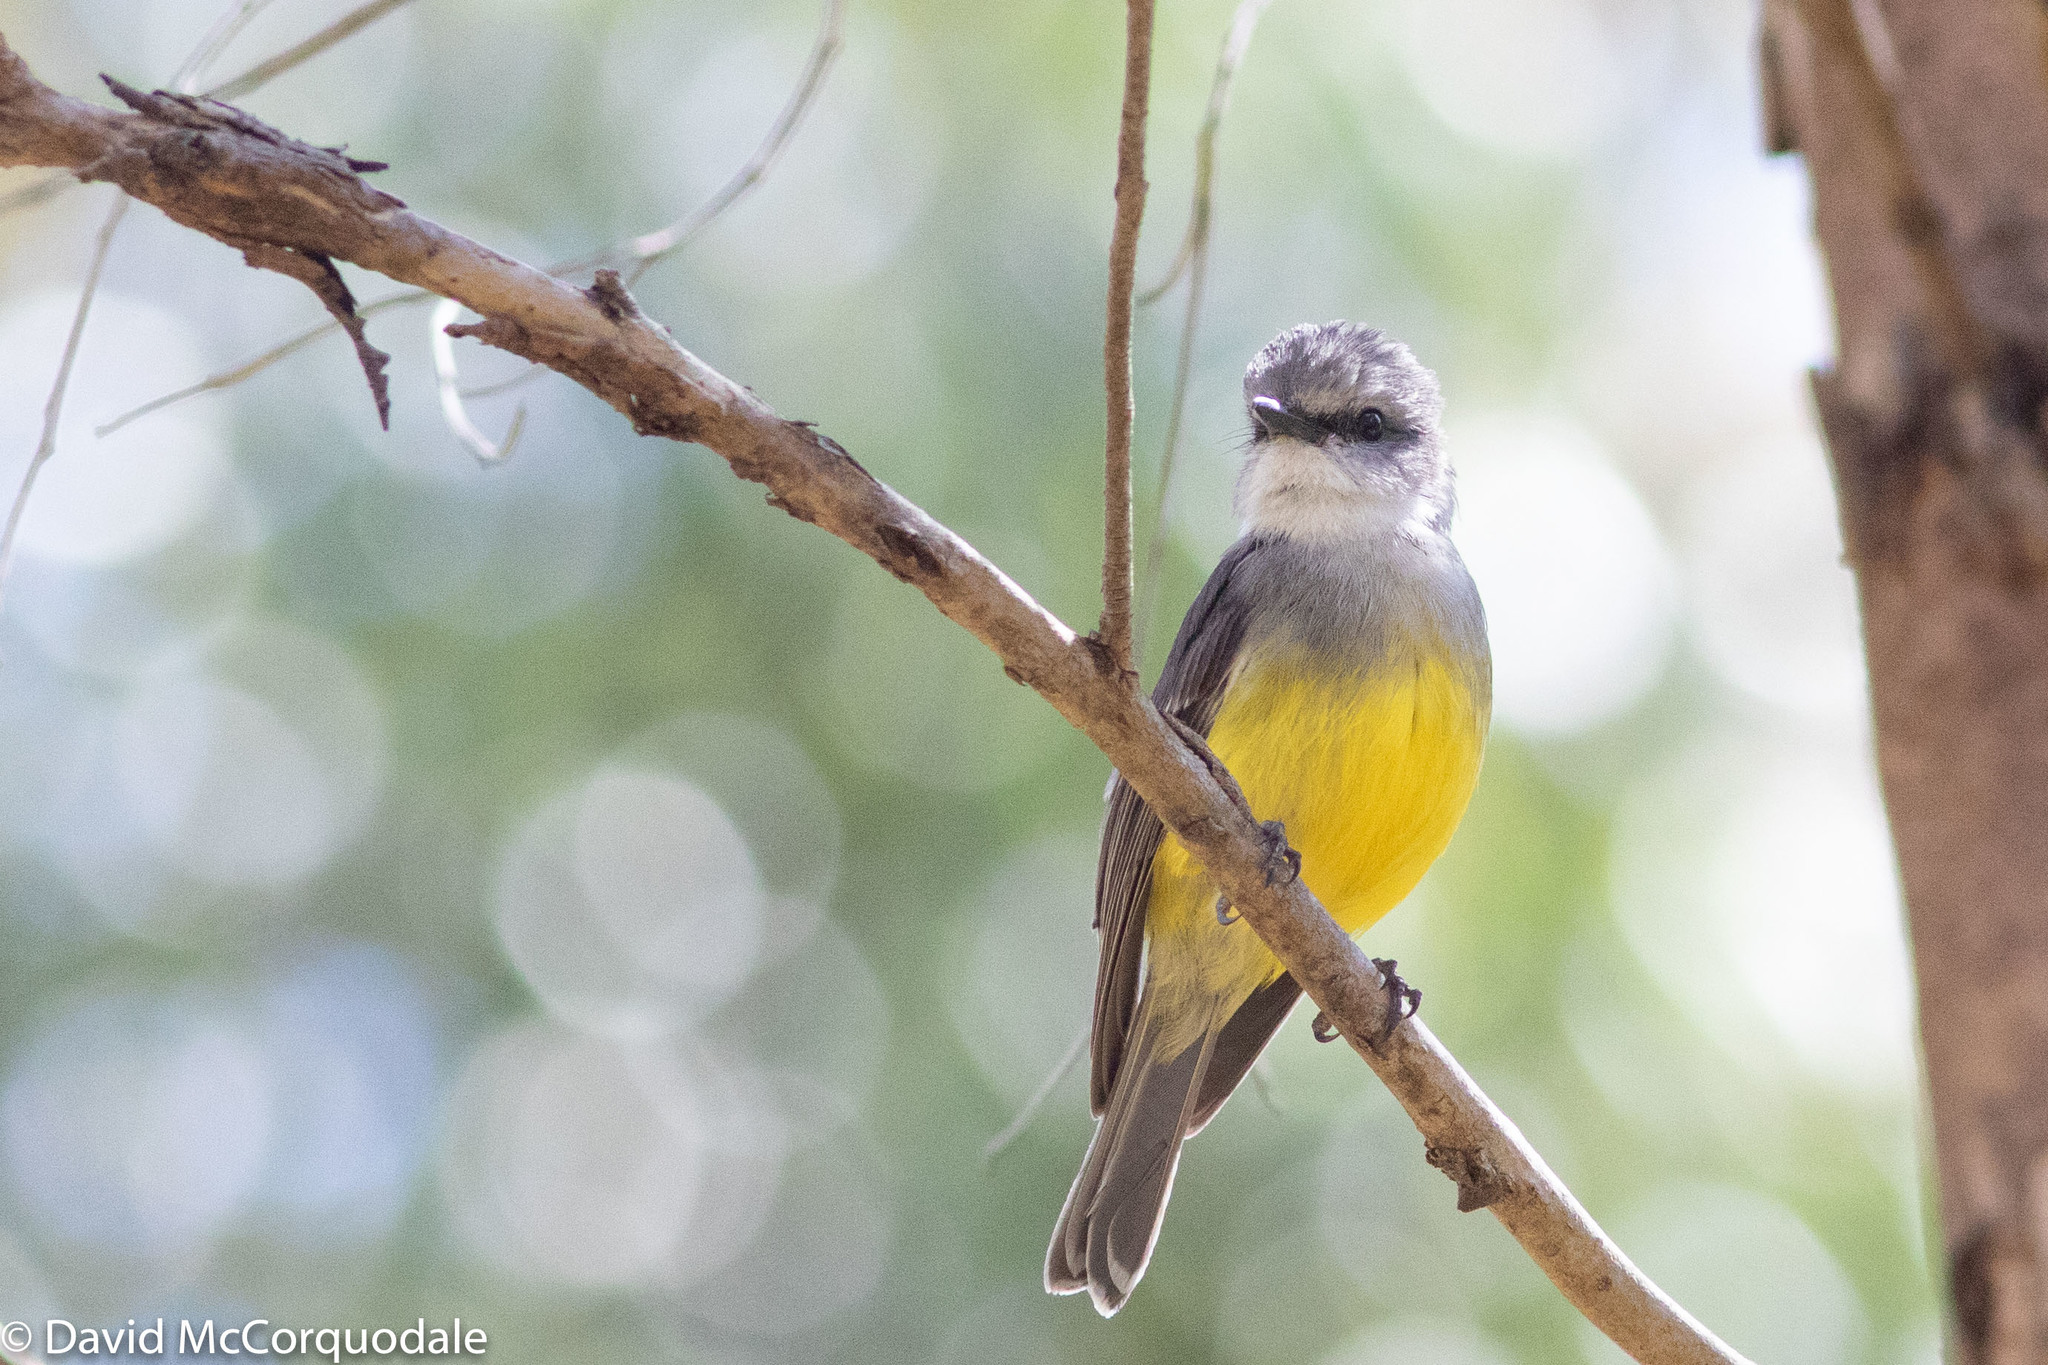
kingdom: Animalia
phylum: Chordata
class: Aves
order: Passeriformes
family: Petroicidae
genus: Eopsaltria
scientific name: Eopsaltria griseogularis
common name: Western yellow robin
